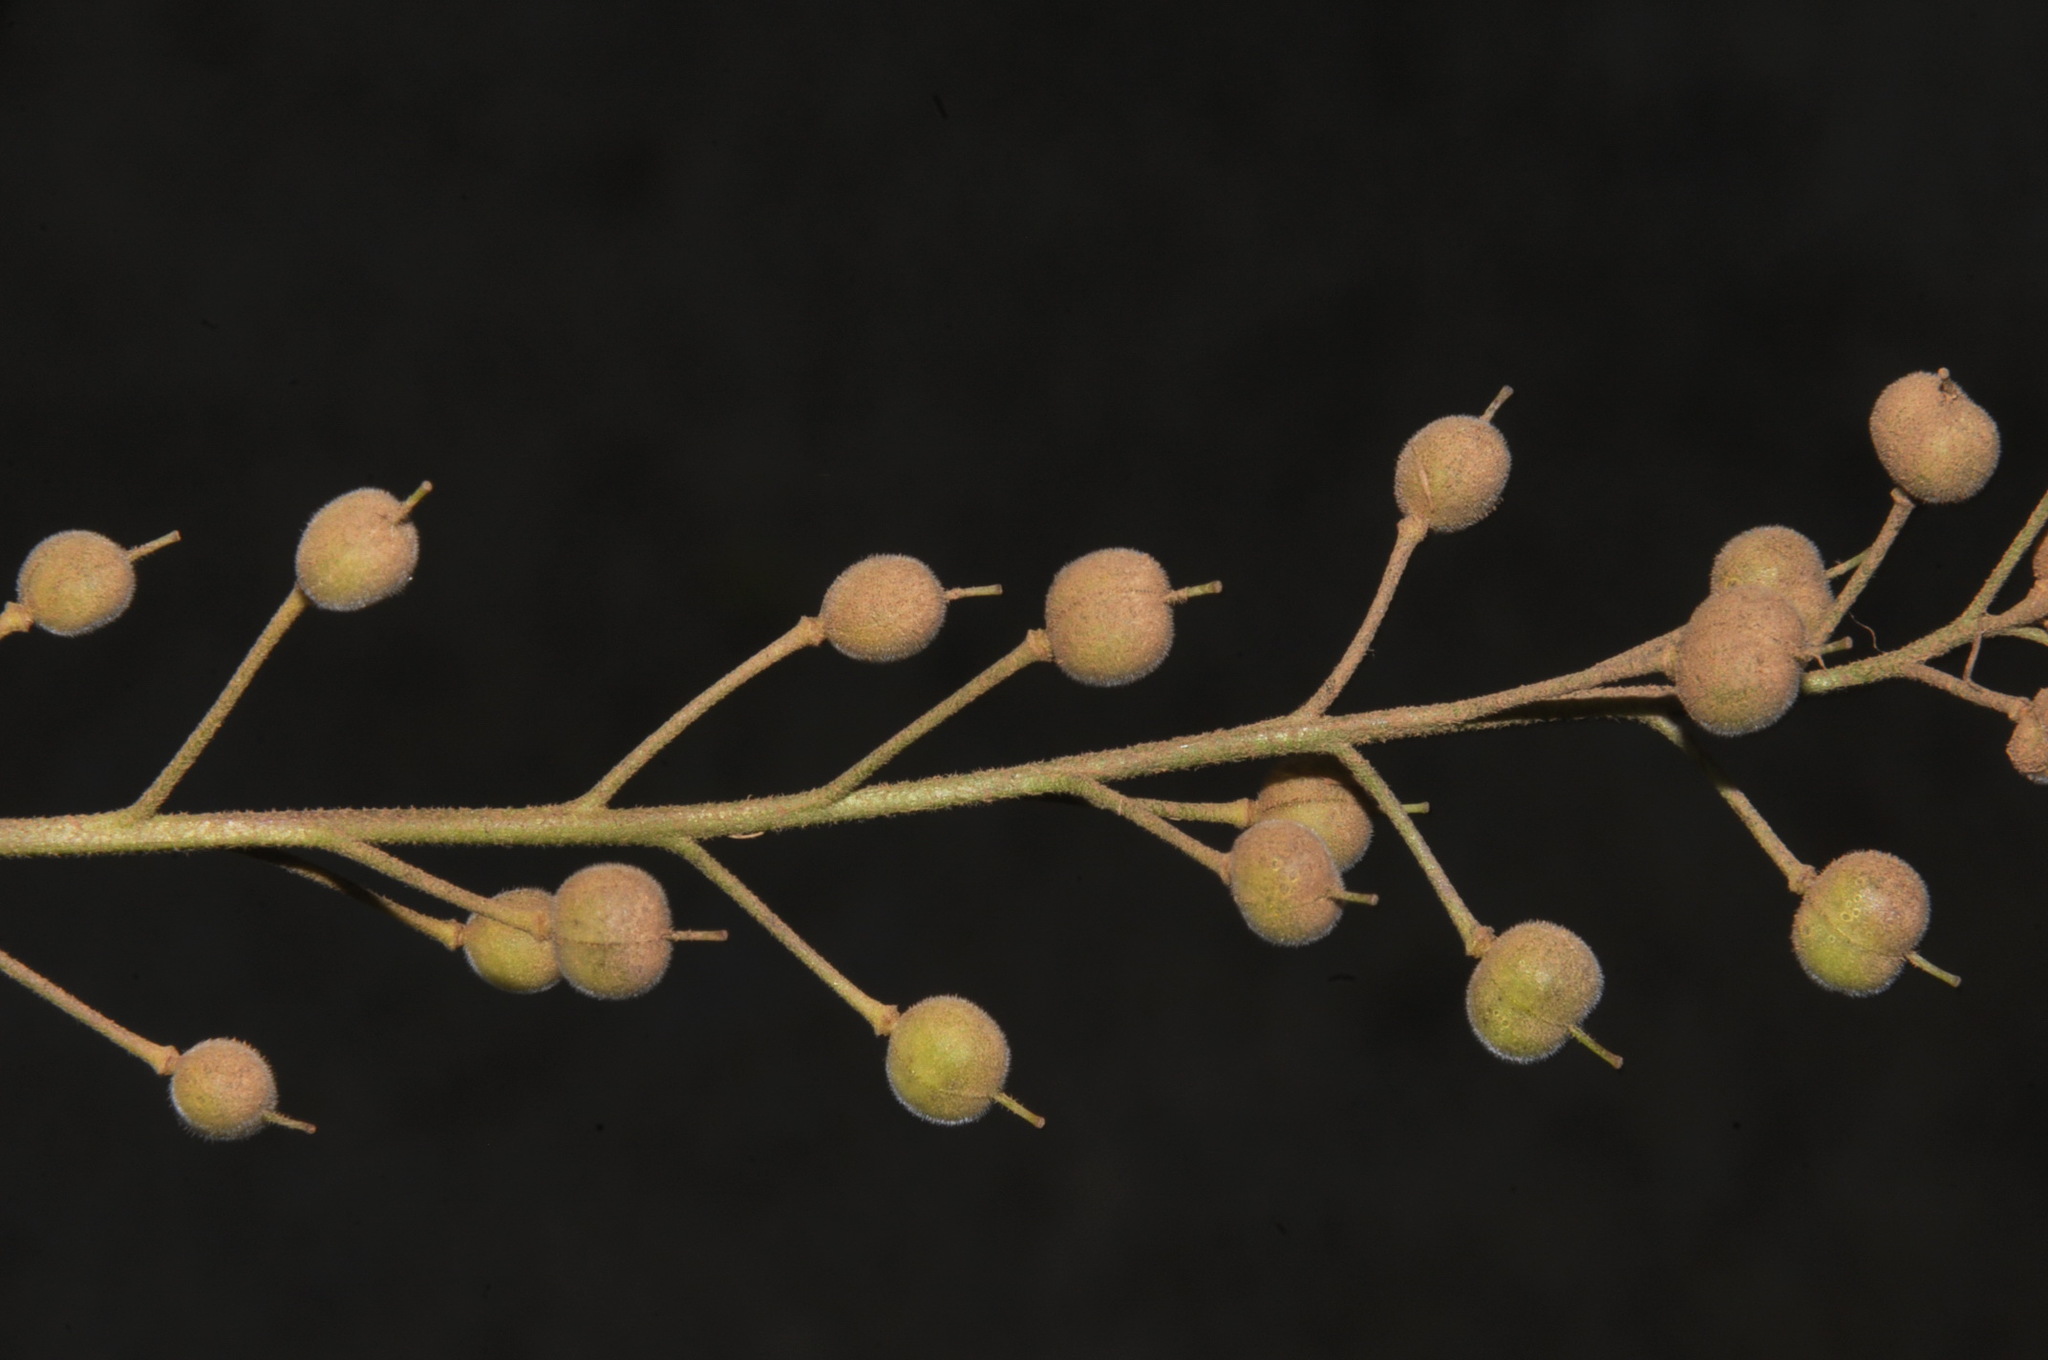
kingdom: Plantae
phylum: Tracheophyta
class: Magnoliopsida
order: Brassicales
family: Brassicaceae
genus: Paysonia
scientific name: Paysonia stonensis
